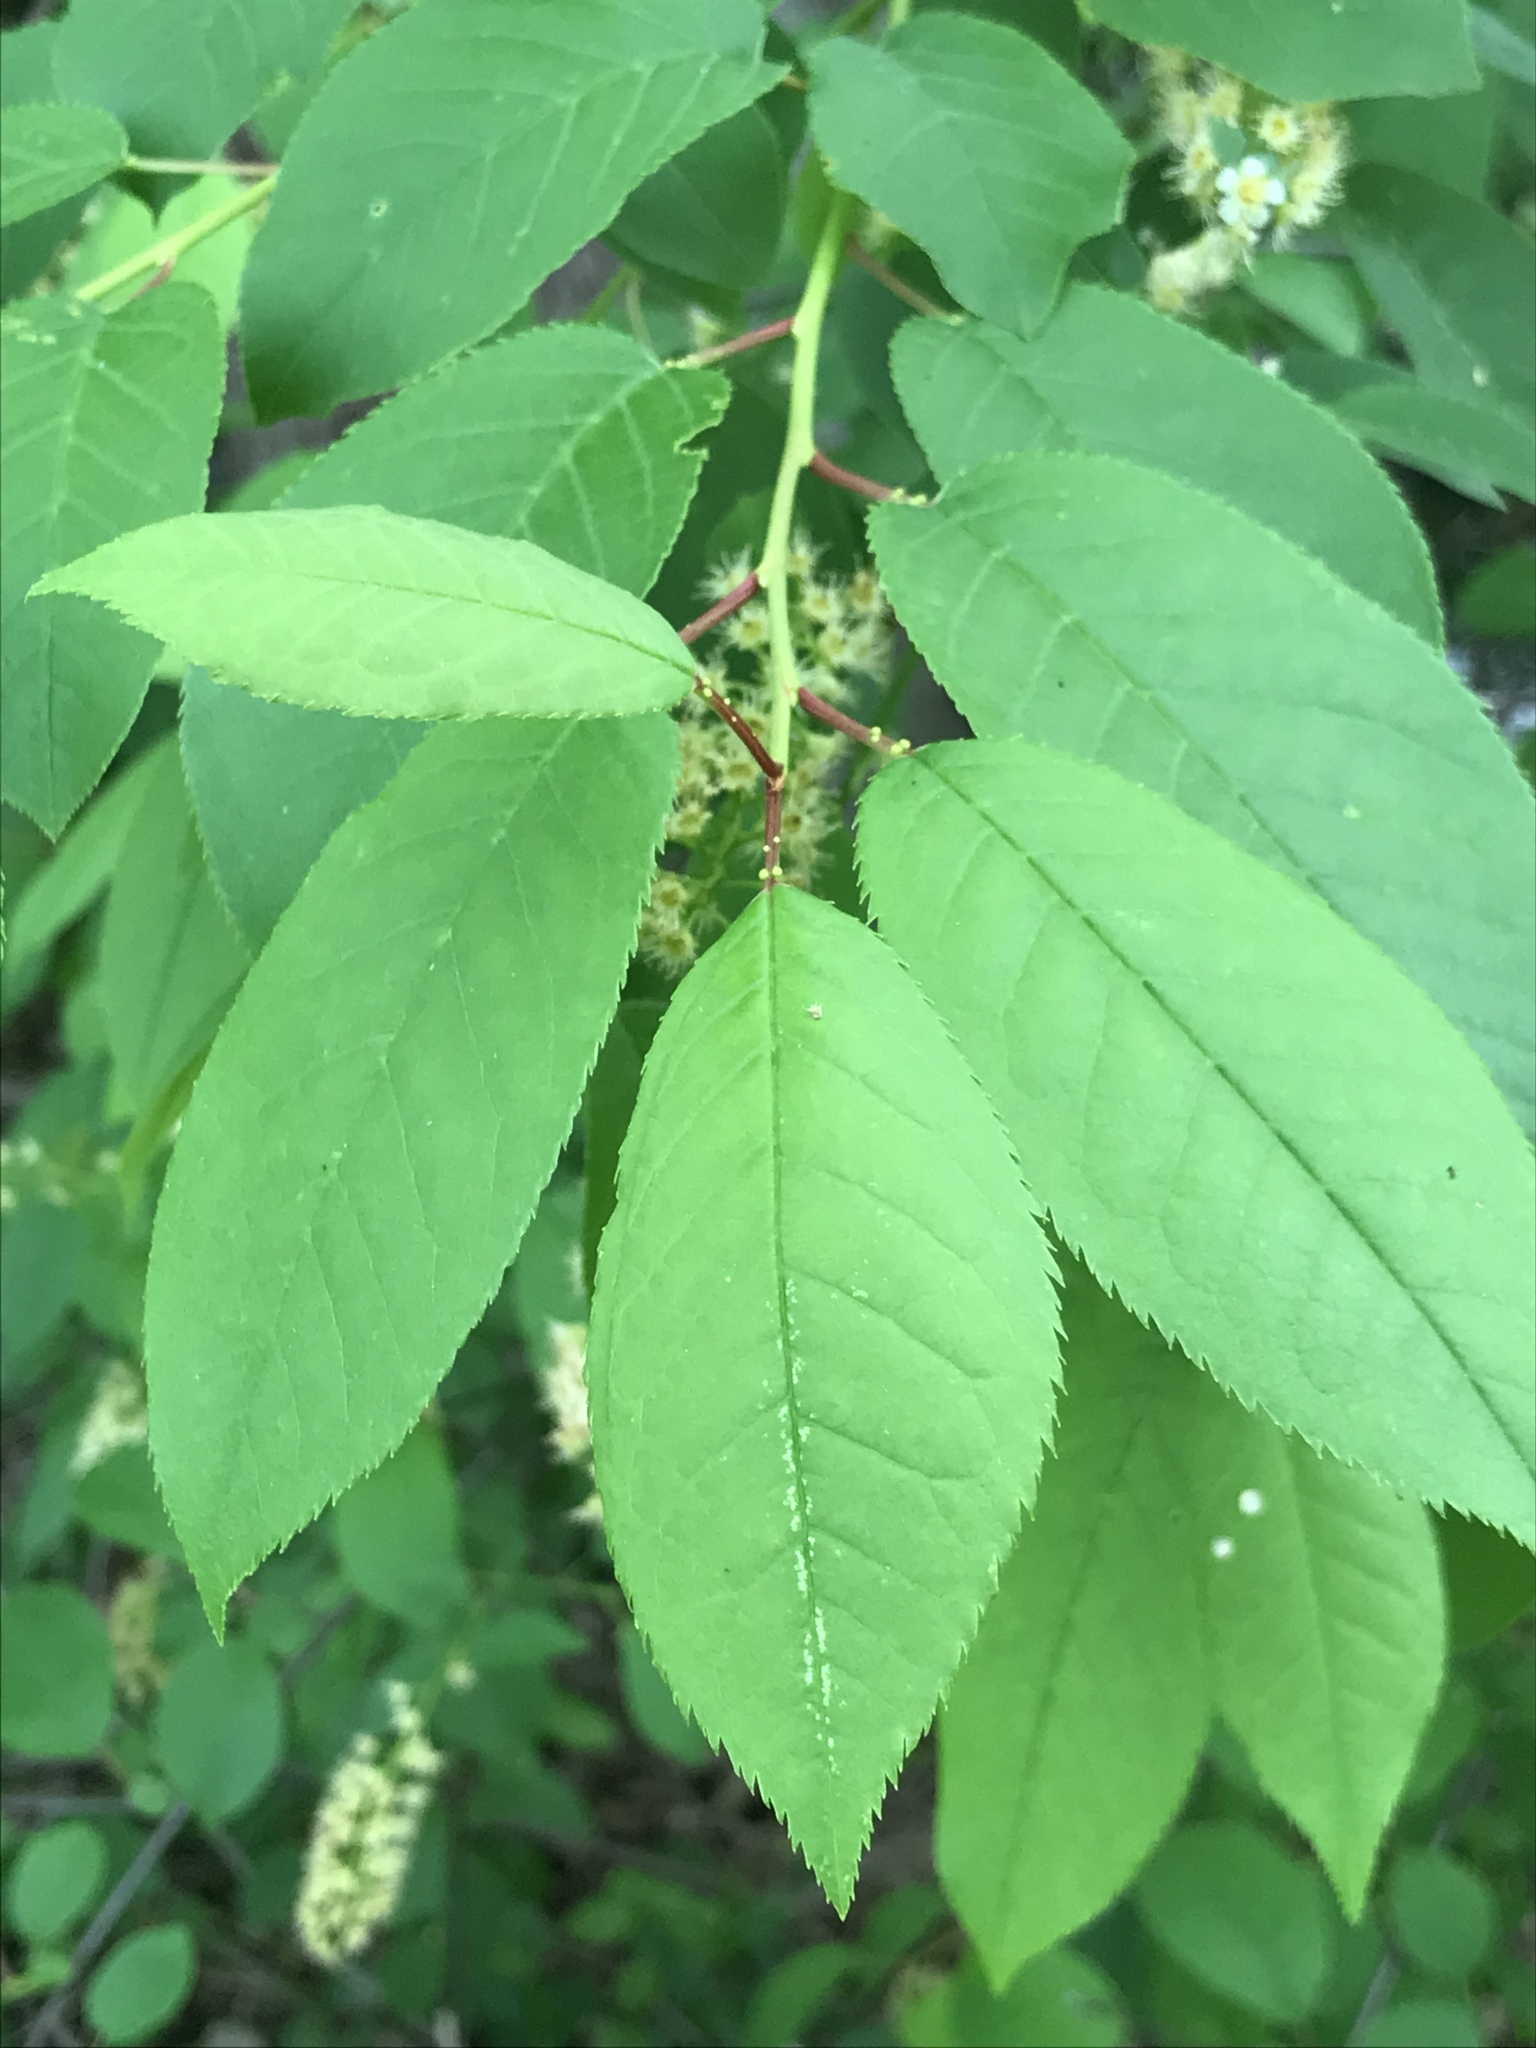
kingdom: Plantae
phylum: Tracheophyta
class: Magnoliopsida
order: Rosales
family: Rosaceae
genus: Prunus
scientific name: Prunus virginiana
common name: Chokecherry
